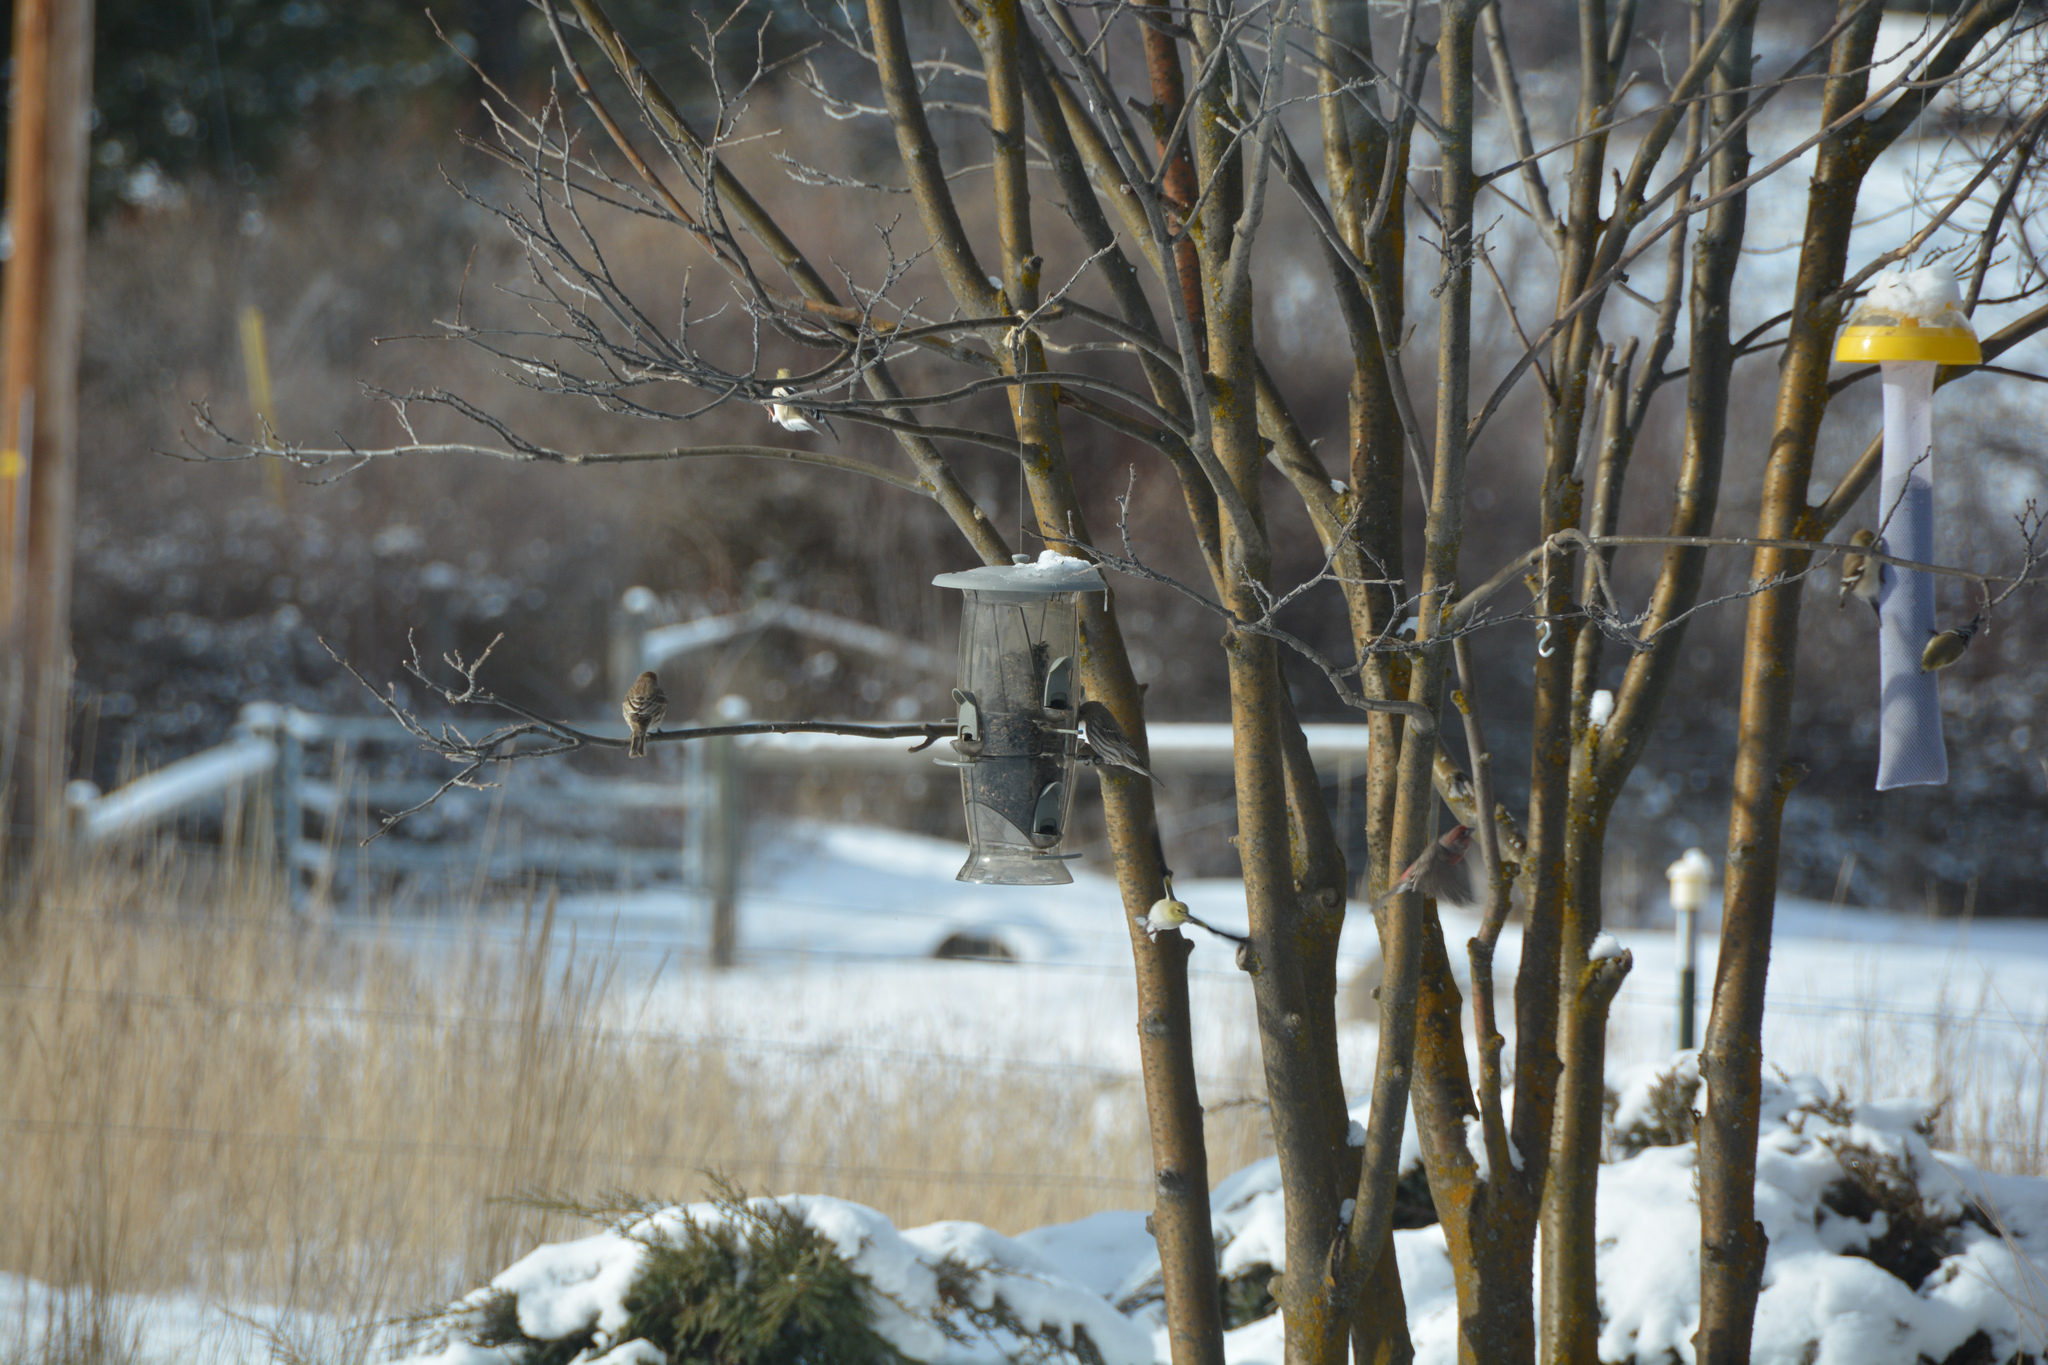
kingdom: Animalia
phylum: Chordata
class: Aves
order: Passeriformes
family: Fringillidae
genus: Haemorhous
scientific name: Haemorhous mexicanus
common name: House finch
